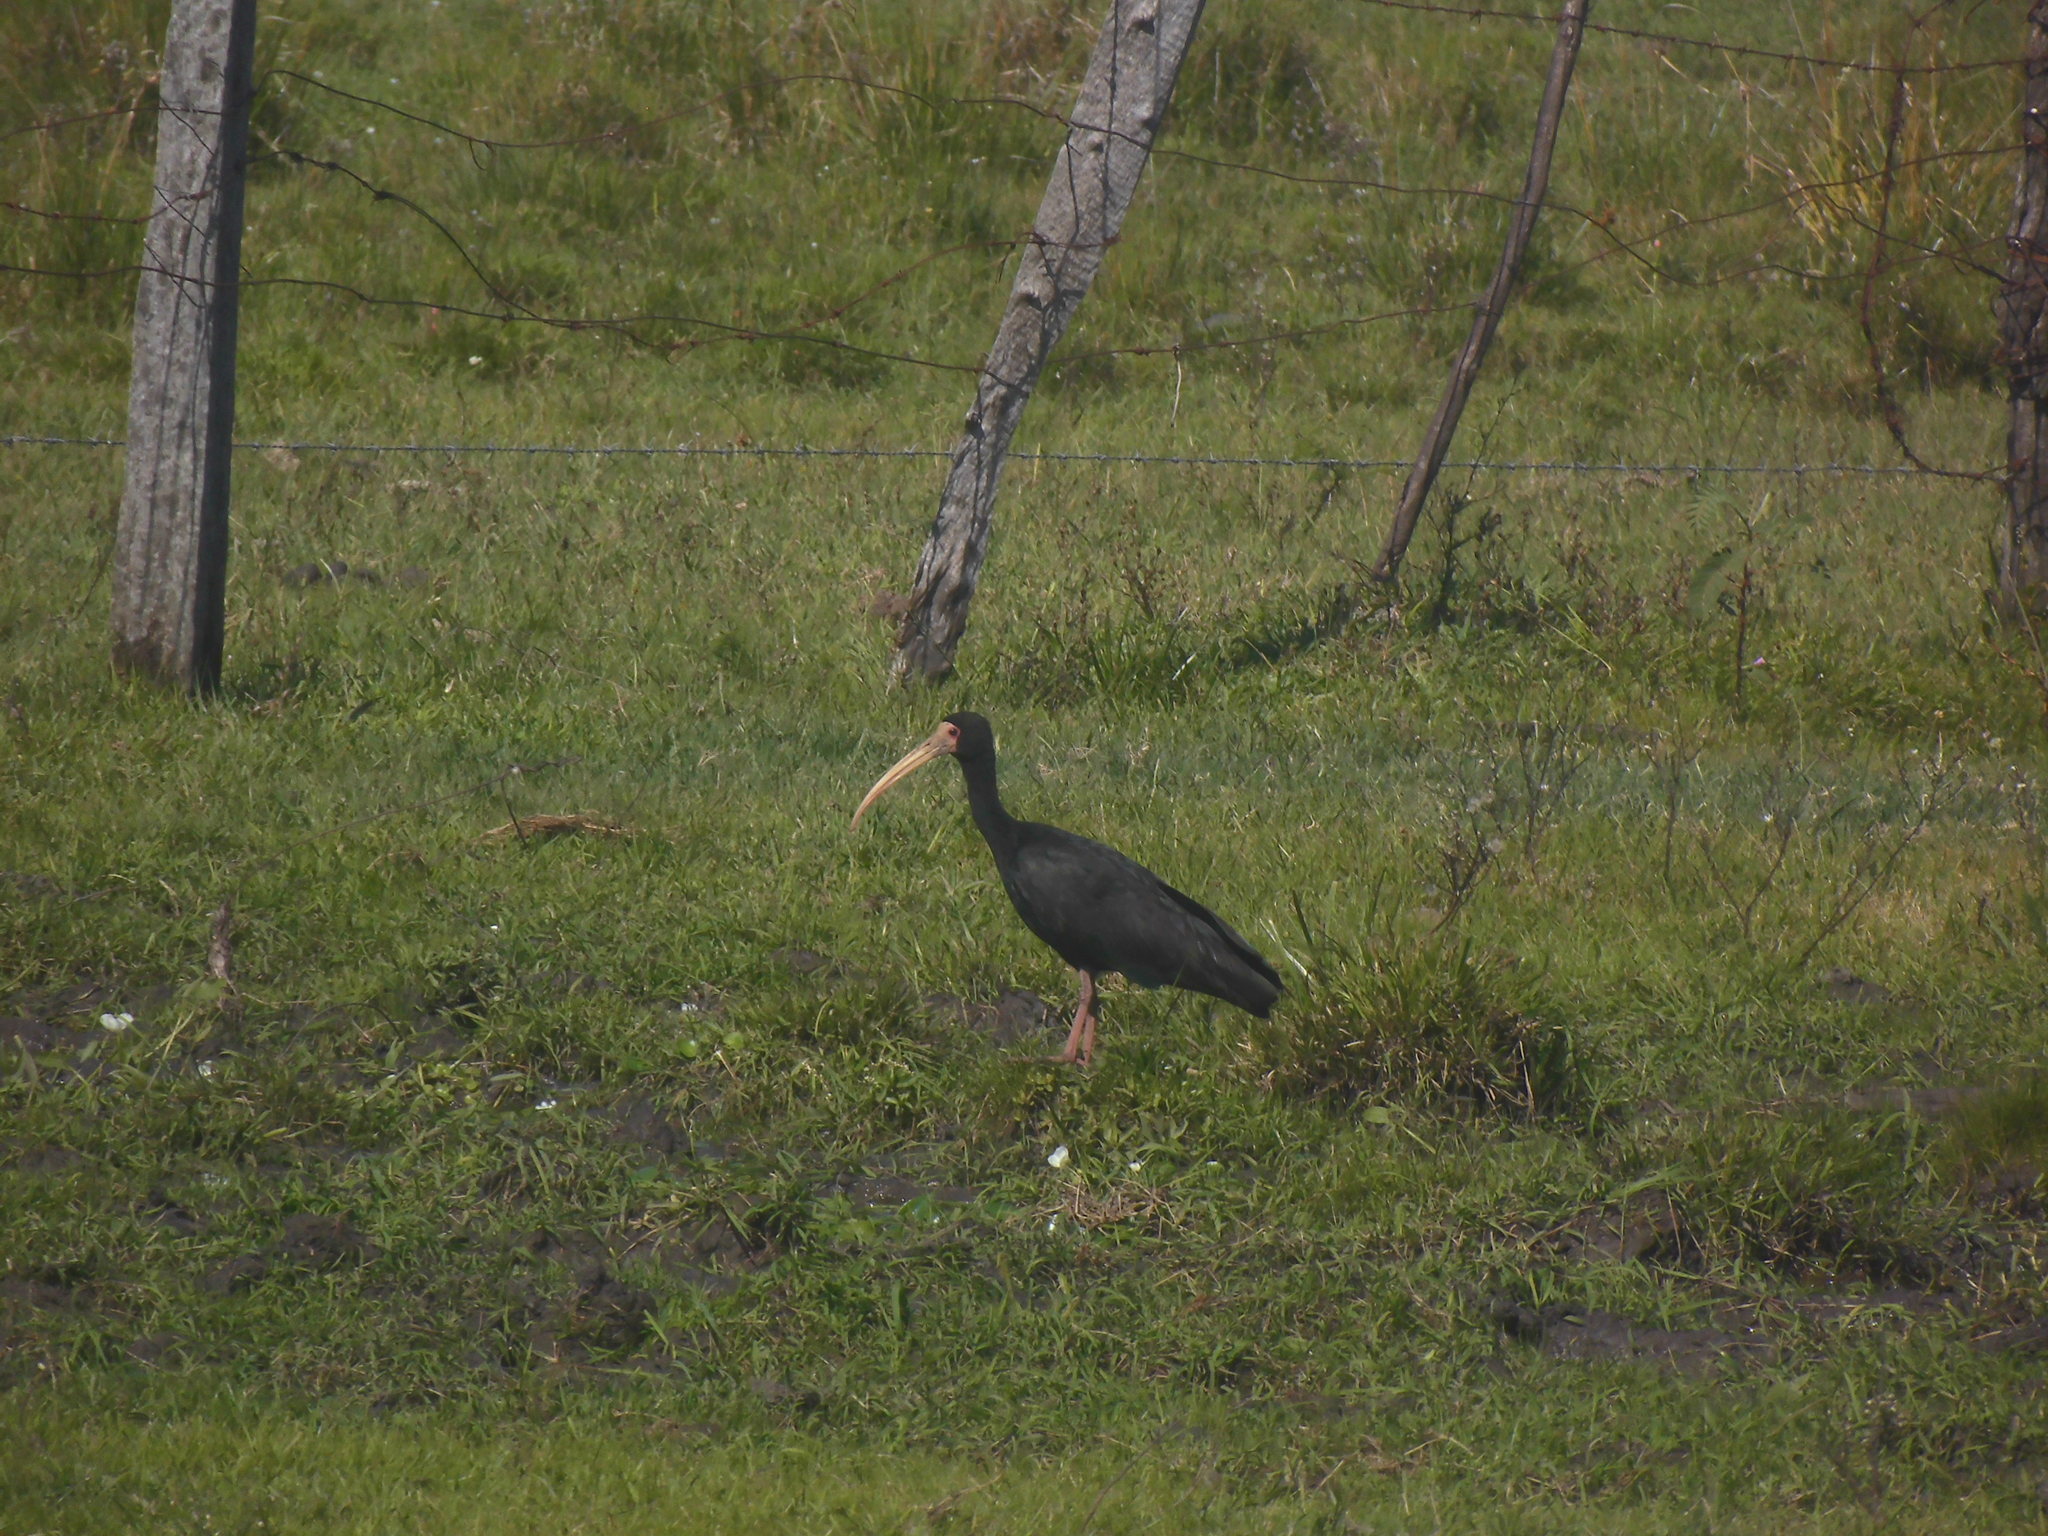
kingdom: Animalia
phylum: Chordata
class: Aves
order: Pelecaniformes
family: Threskiornithidae
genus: Phimosus
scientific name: Phimosus infuscatus
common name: Bare-faced ibis
